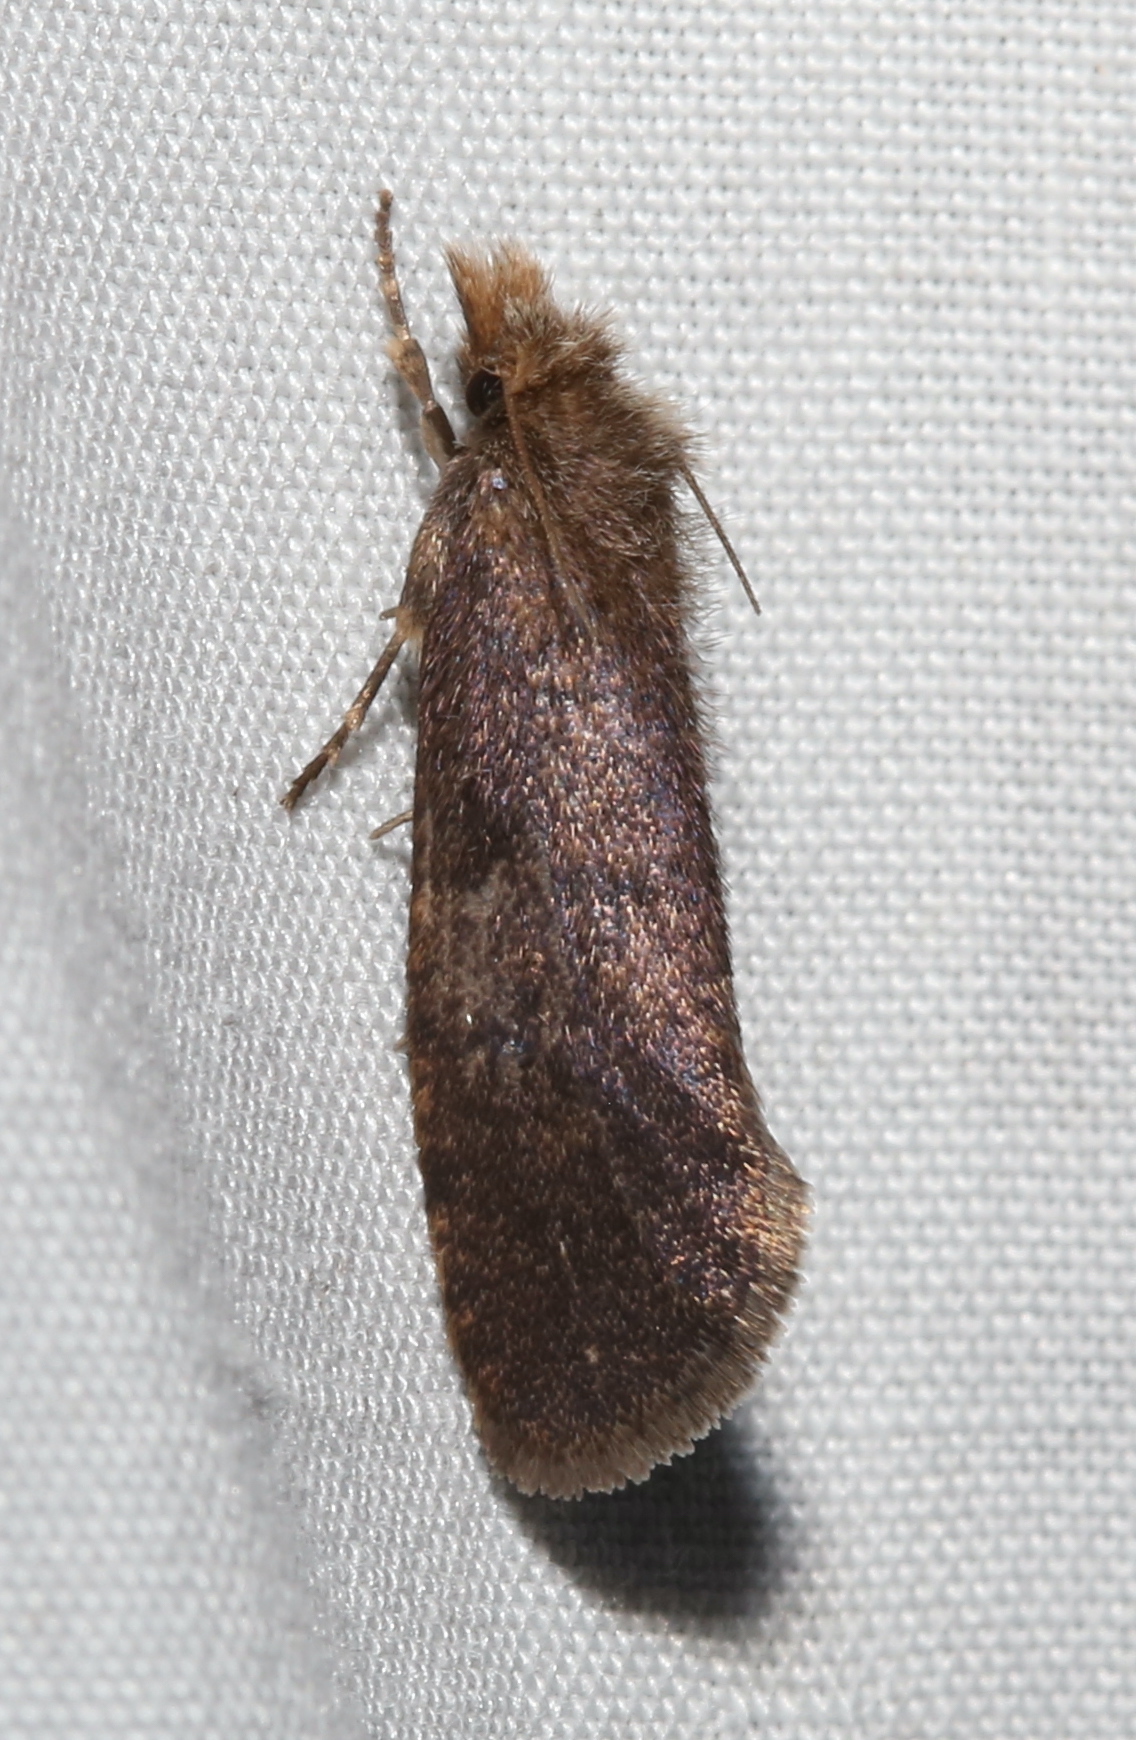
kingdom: Animalia
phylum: Arthropoda
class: Insecta
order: Lepidoptera
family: Tineidae
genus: Acrolophus
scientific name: Acrolophus propinqua
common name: Walsingham's grass tubeworm moth
